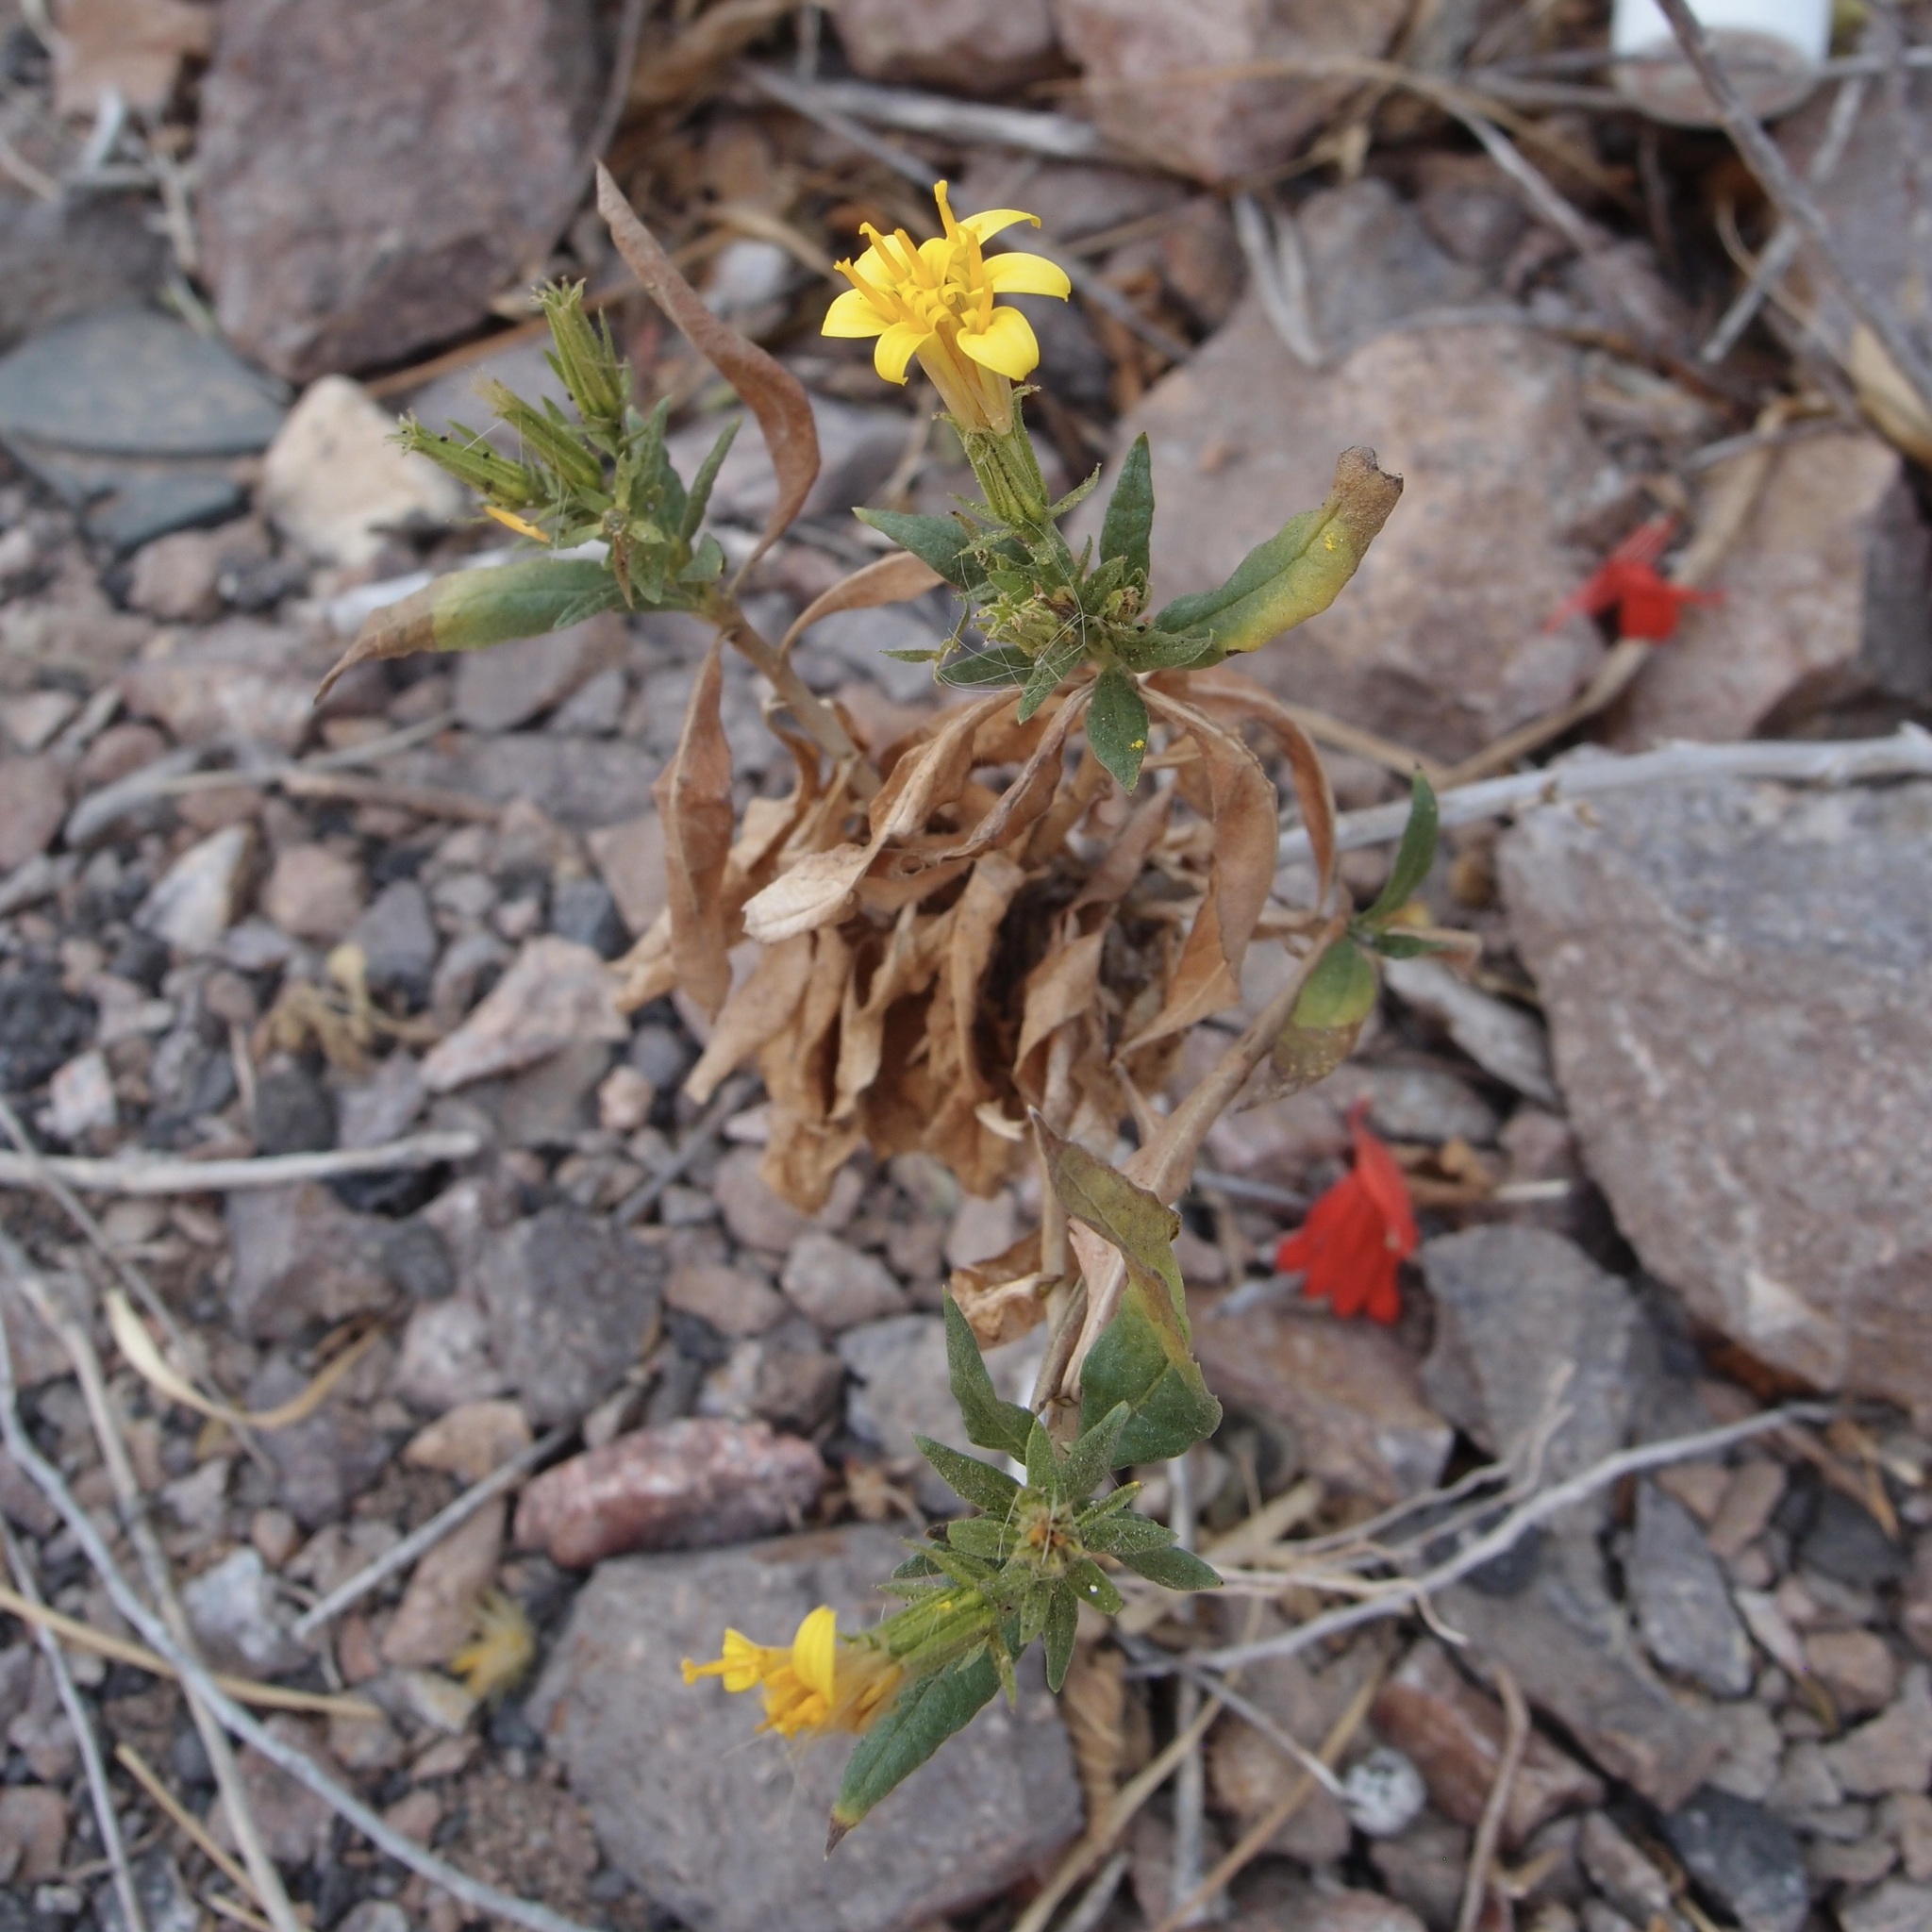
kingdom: Plantae
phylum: Tracheophyta
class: Magnoliopsida
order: Asterales
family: Asteraceae
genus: Trixis
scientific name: Trixis californica
